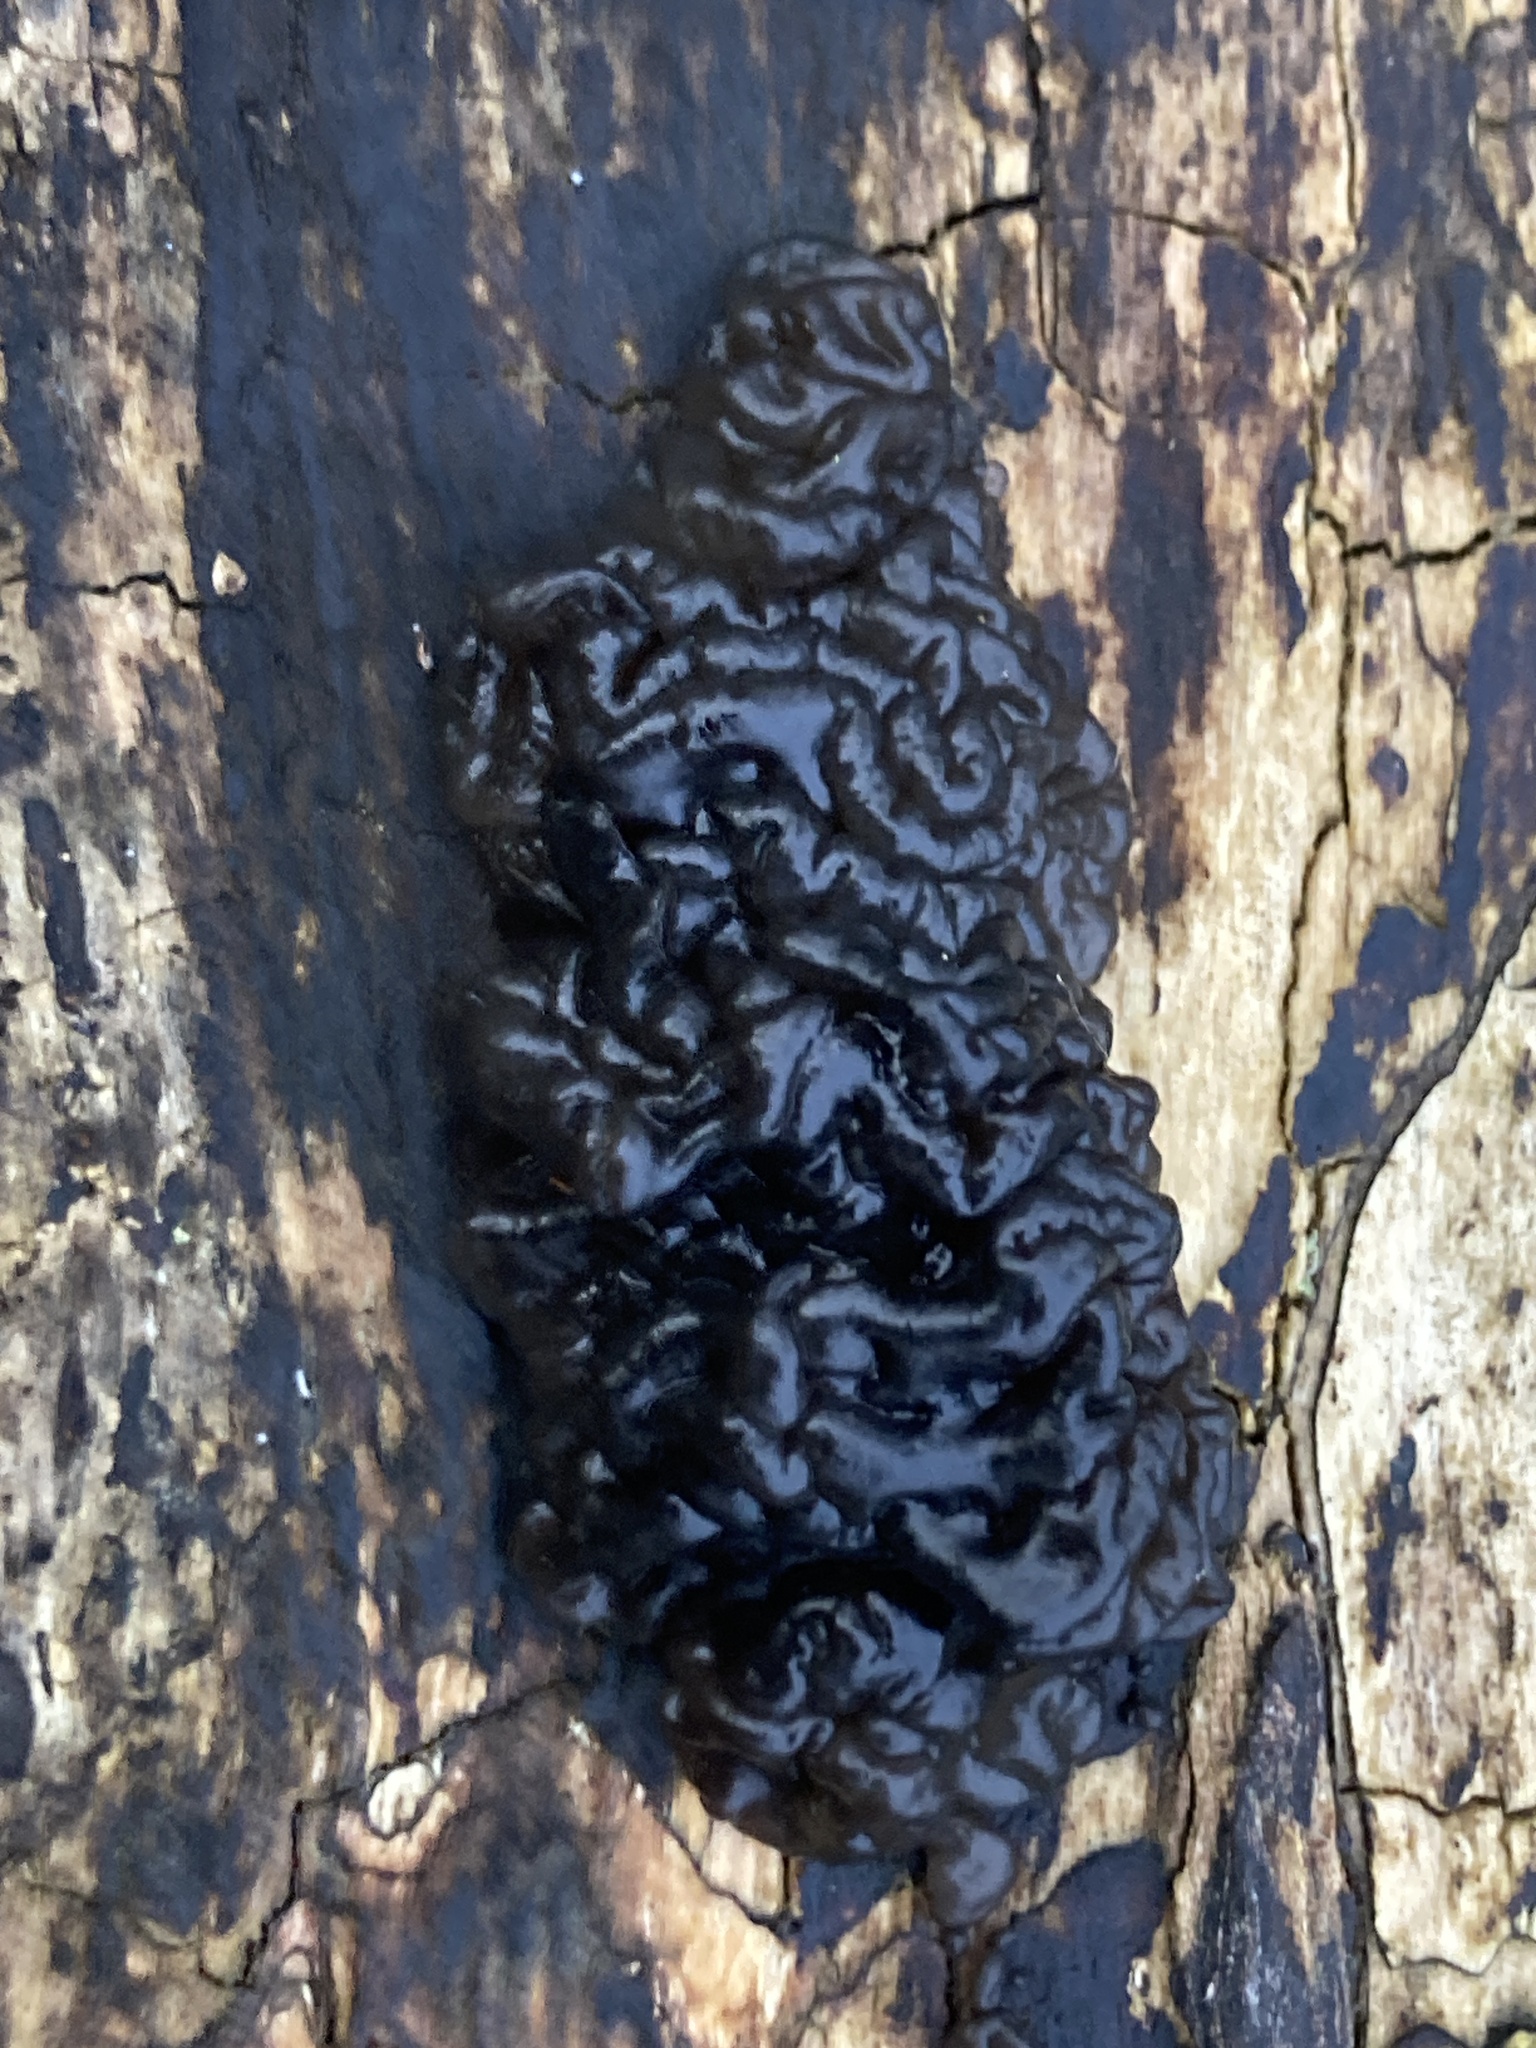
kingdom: Fungi
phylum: Basidiomycota
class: Agaricomycetes
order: Auriculariales
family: Auriculariaceae
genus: Exidia
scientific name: Exidia nigricans
